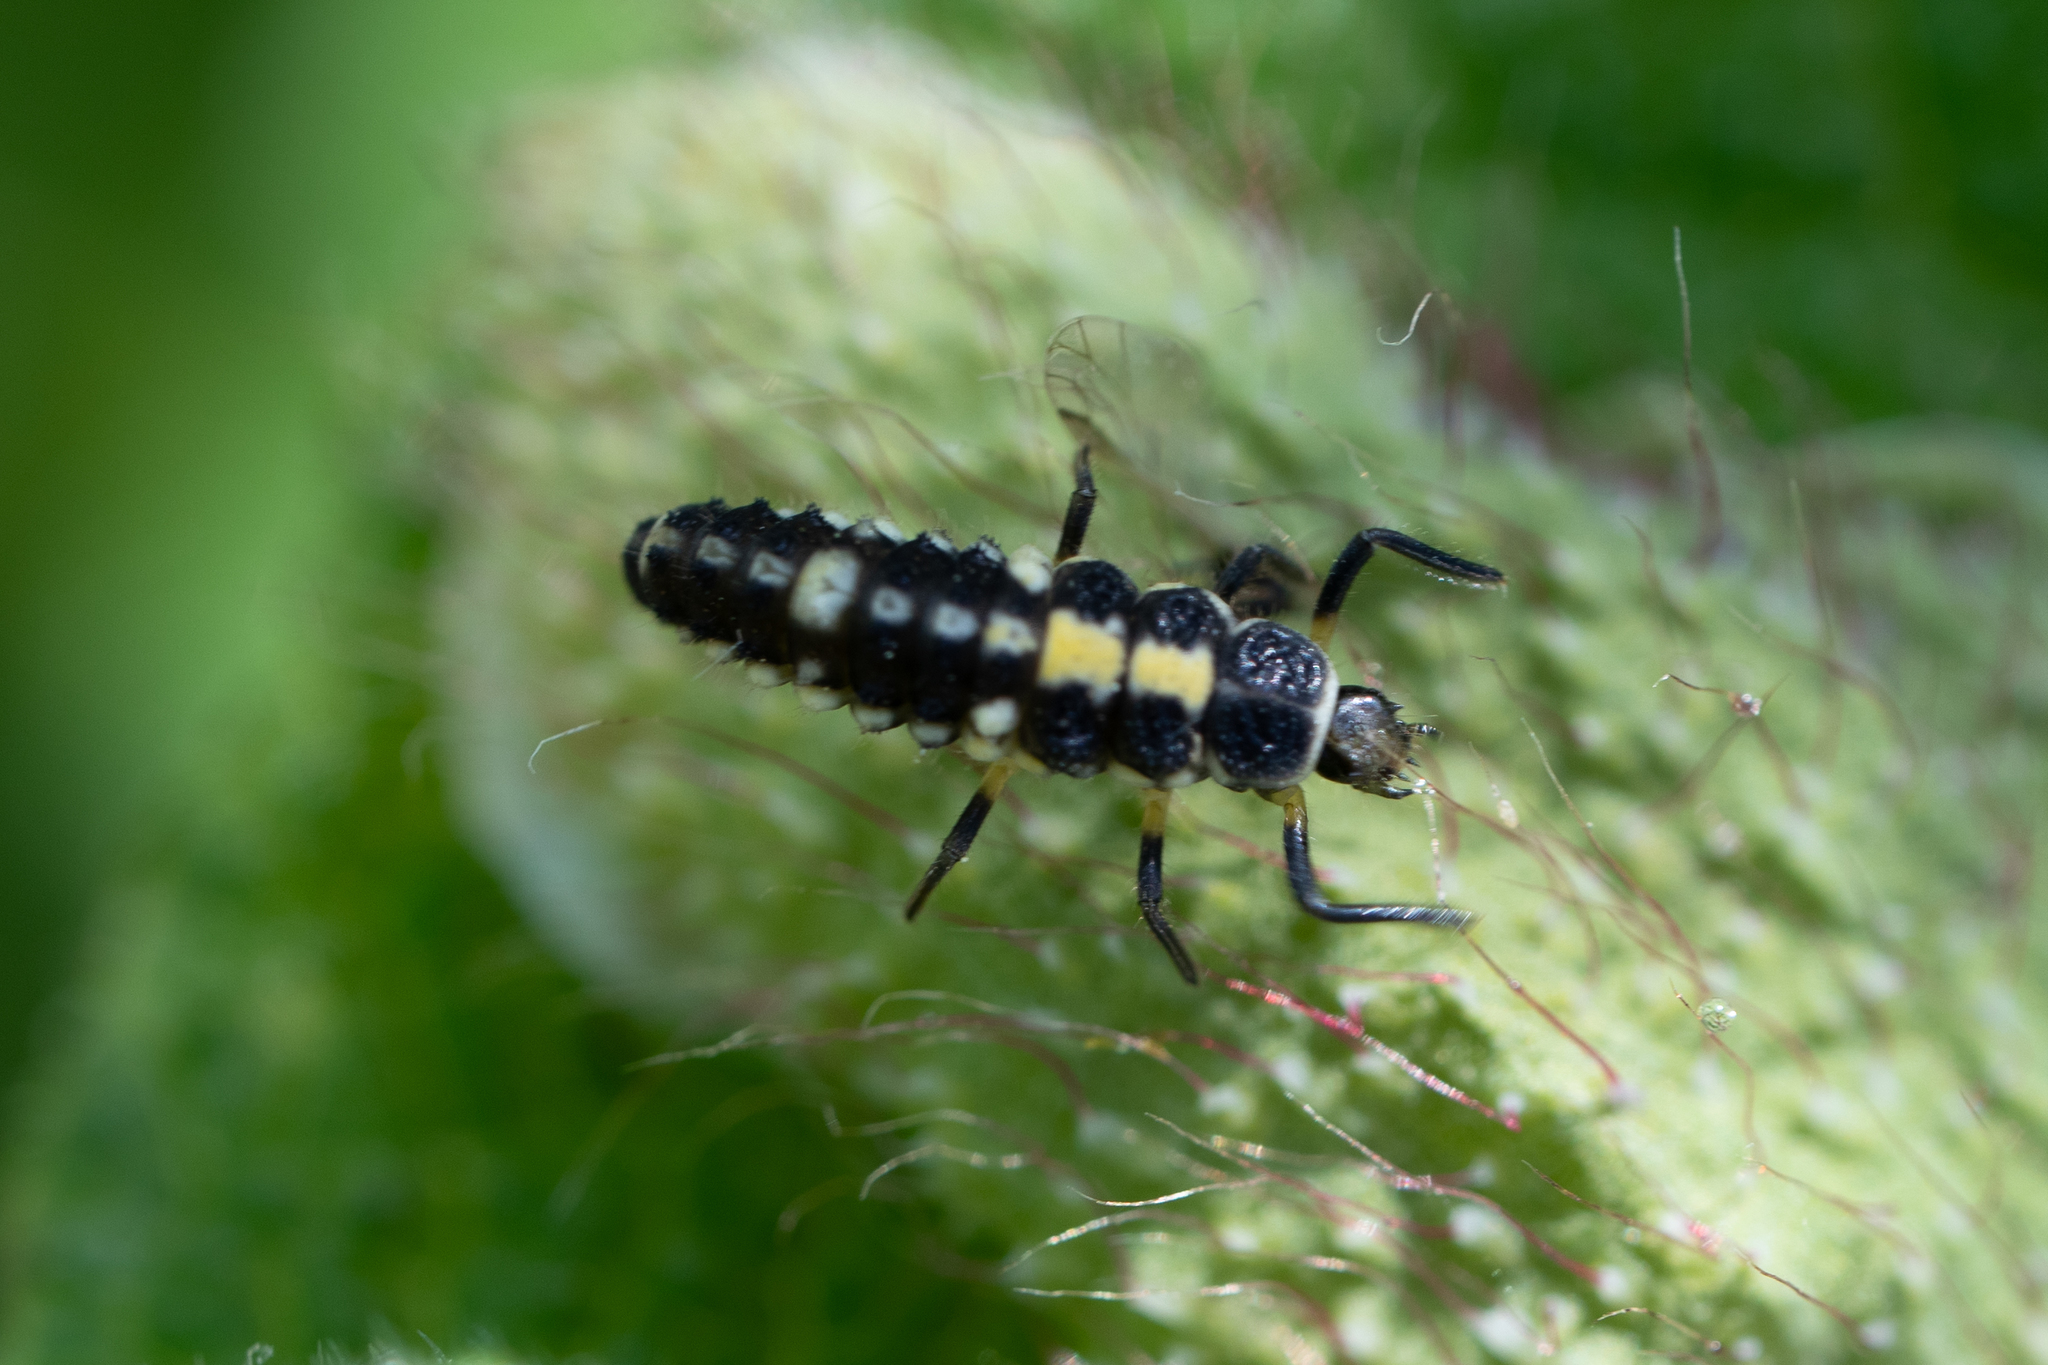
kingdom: Animalia
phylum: Arthropoda
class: Insecta
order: Coleoptera
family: Coccinellidae
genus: Propylaea
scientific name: Propylaea quatuordecimpunctata
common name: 14-spotted ladybird beetle
